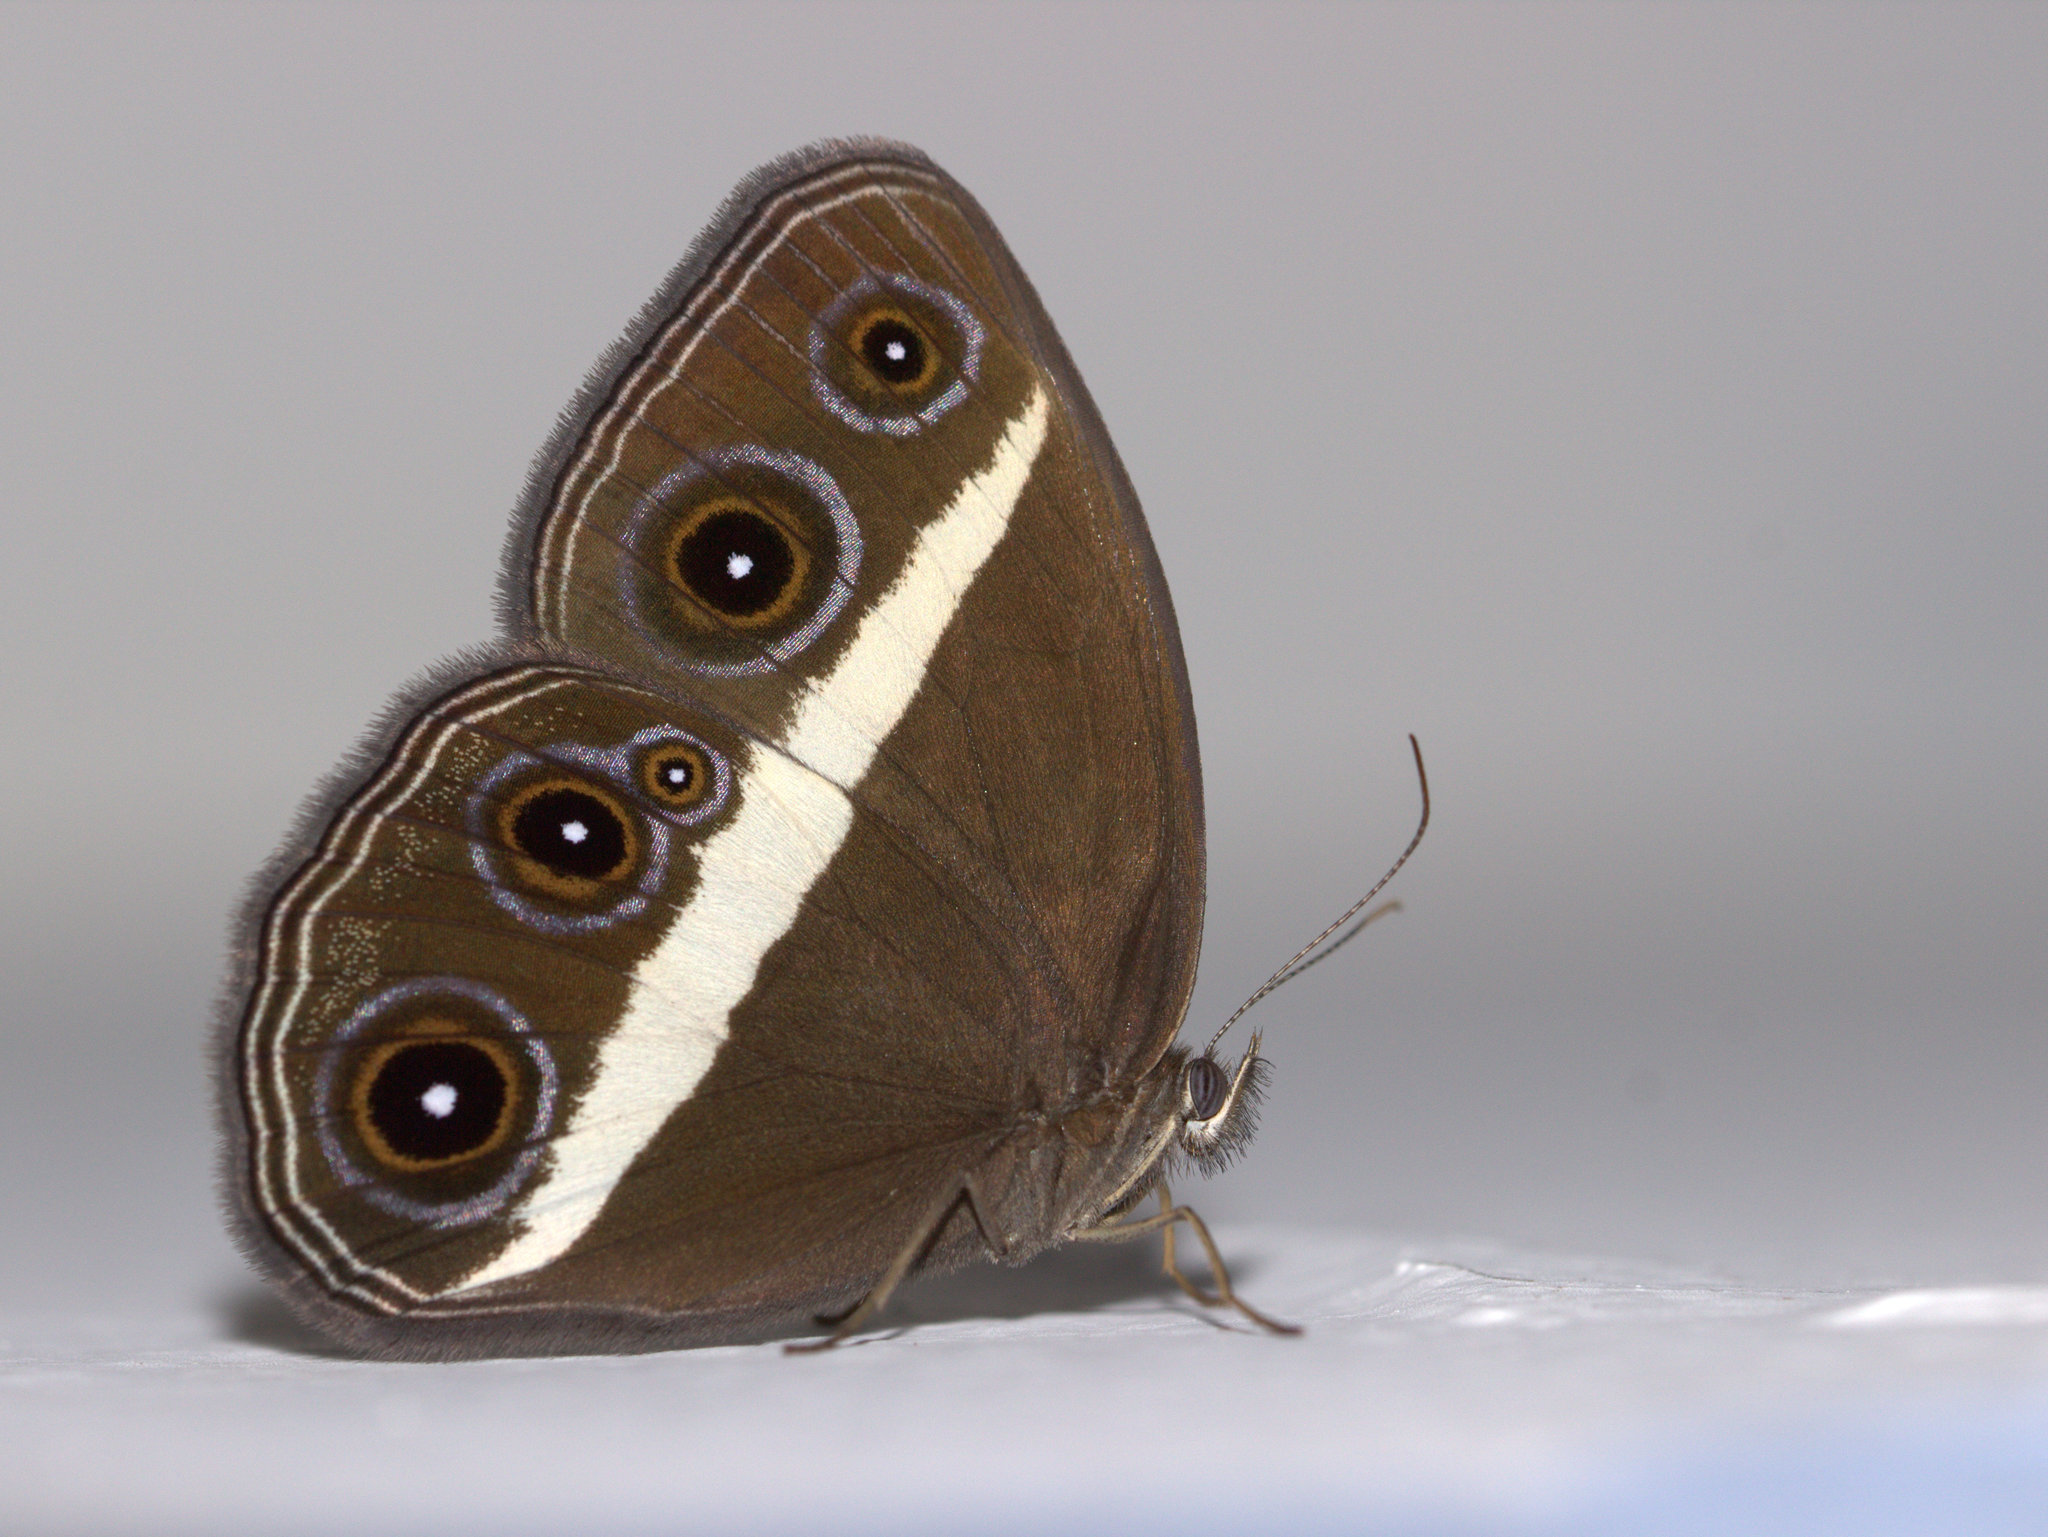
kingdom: Animalia
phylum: Arthropoda
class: Insecta
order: Lepidoptera
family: Nymphalidae
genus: Orsotriaena
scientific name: Orsotriaena medus
